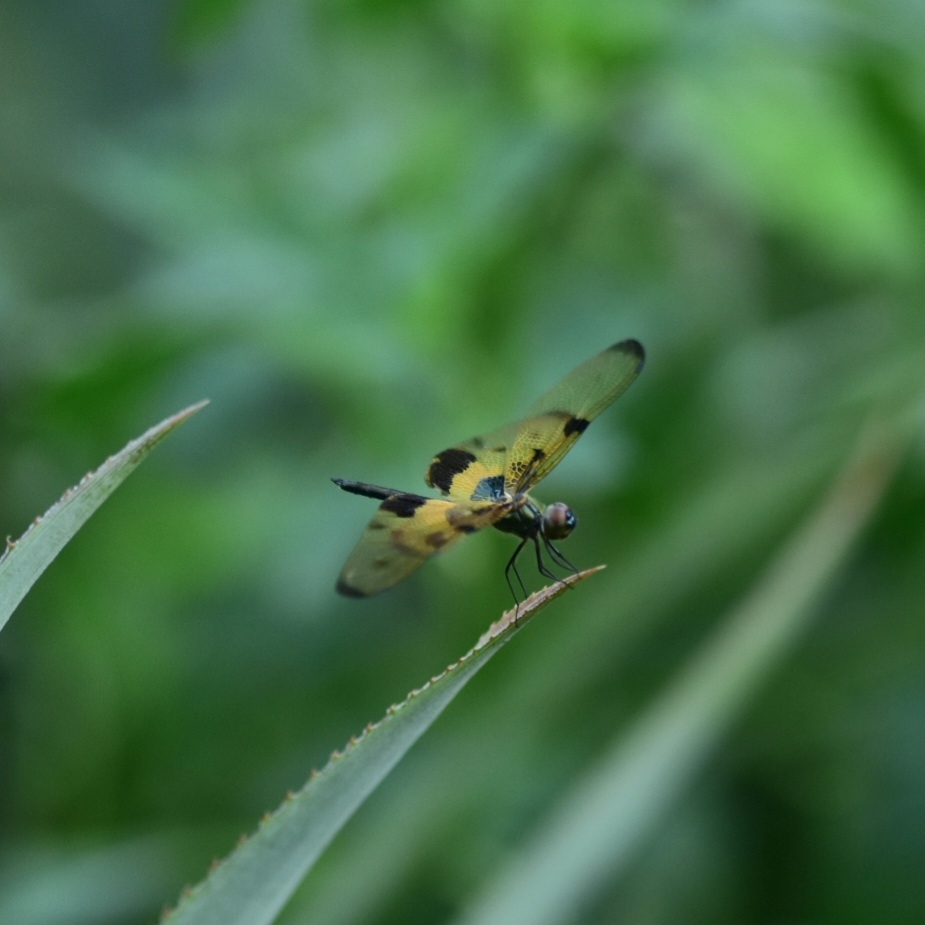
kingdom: Animalia
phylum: Arthropoda
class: Insecta
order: Odonata
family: Libellulidae
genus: Rhyothemis
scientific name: Rhyothemis variegata
